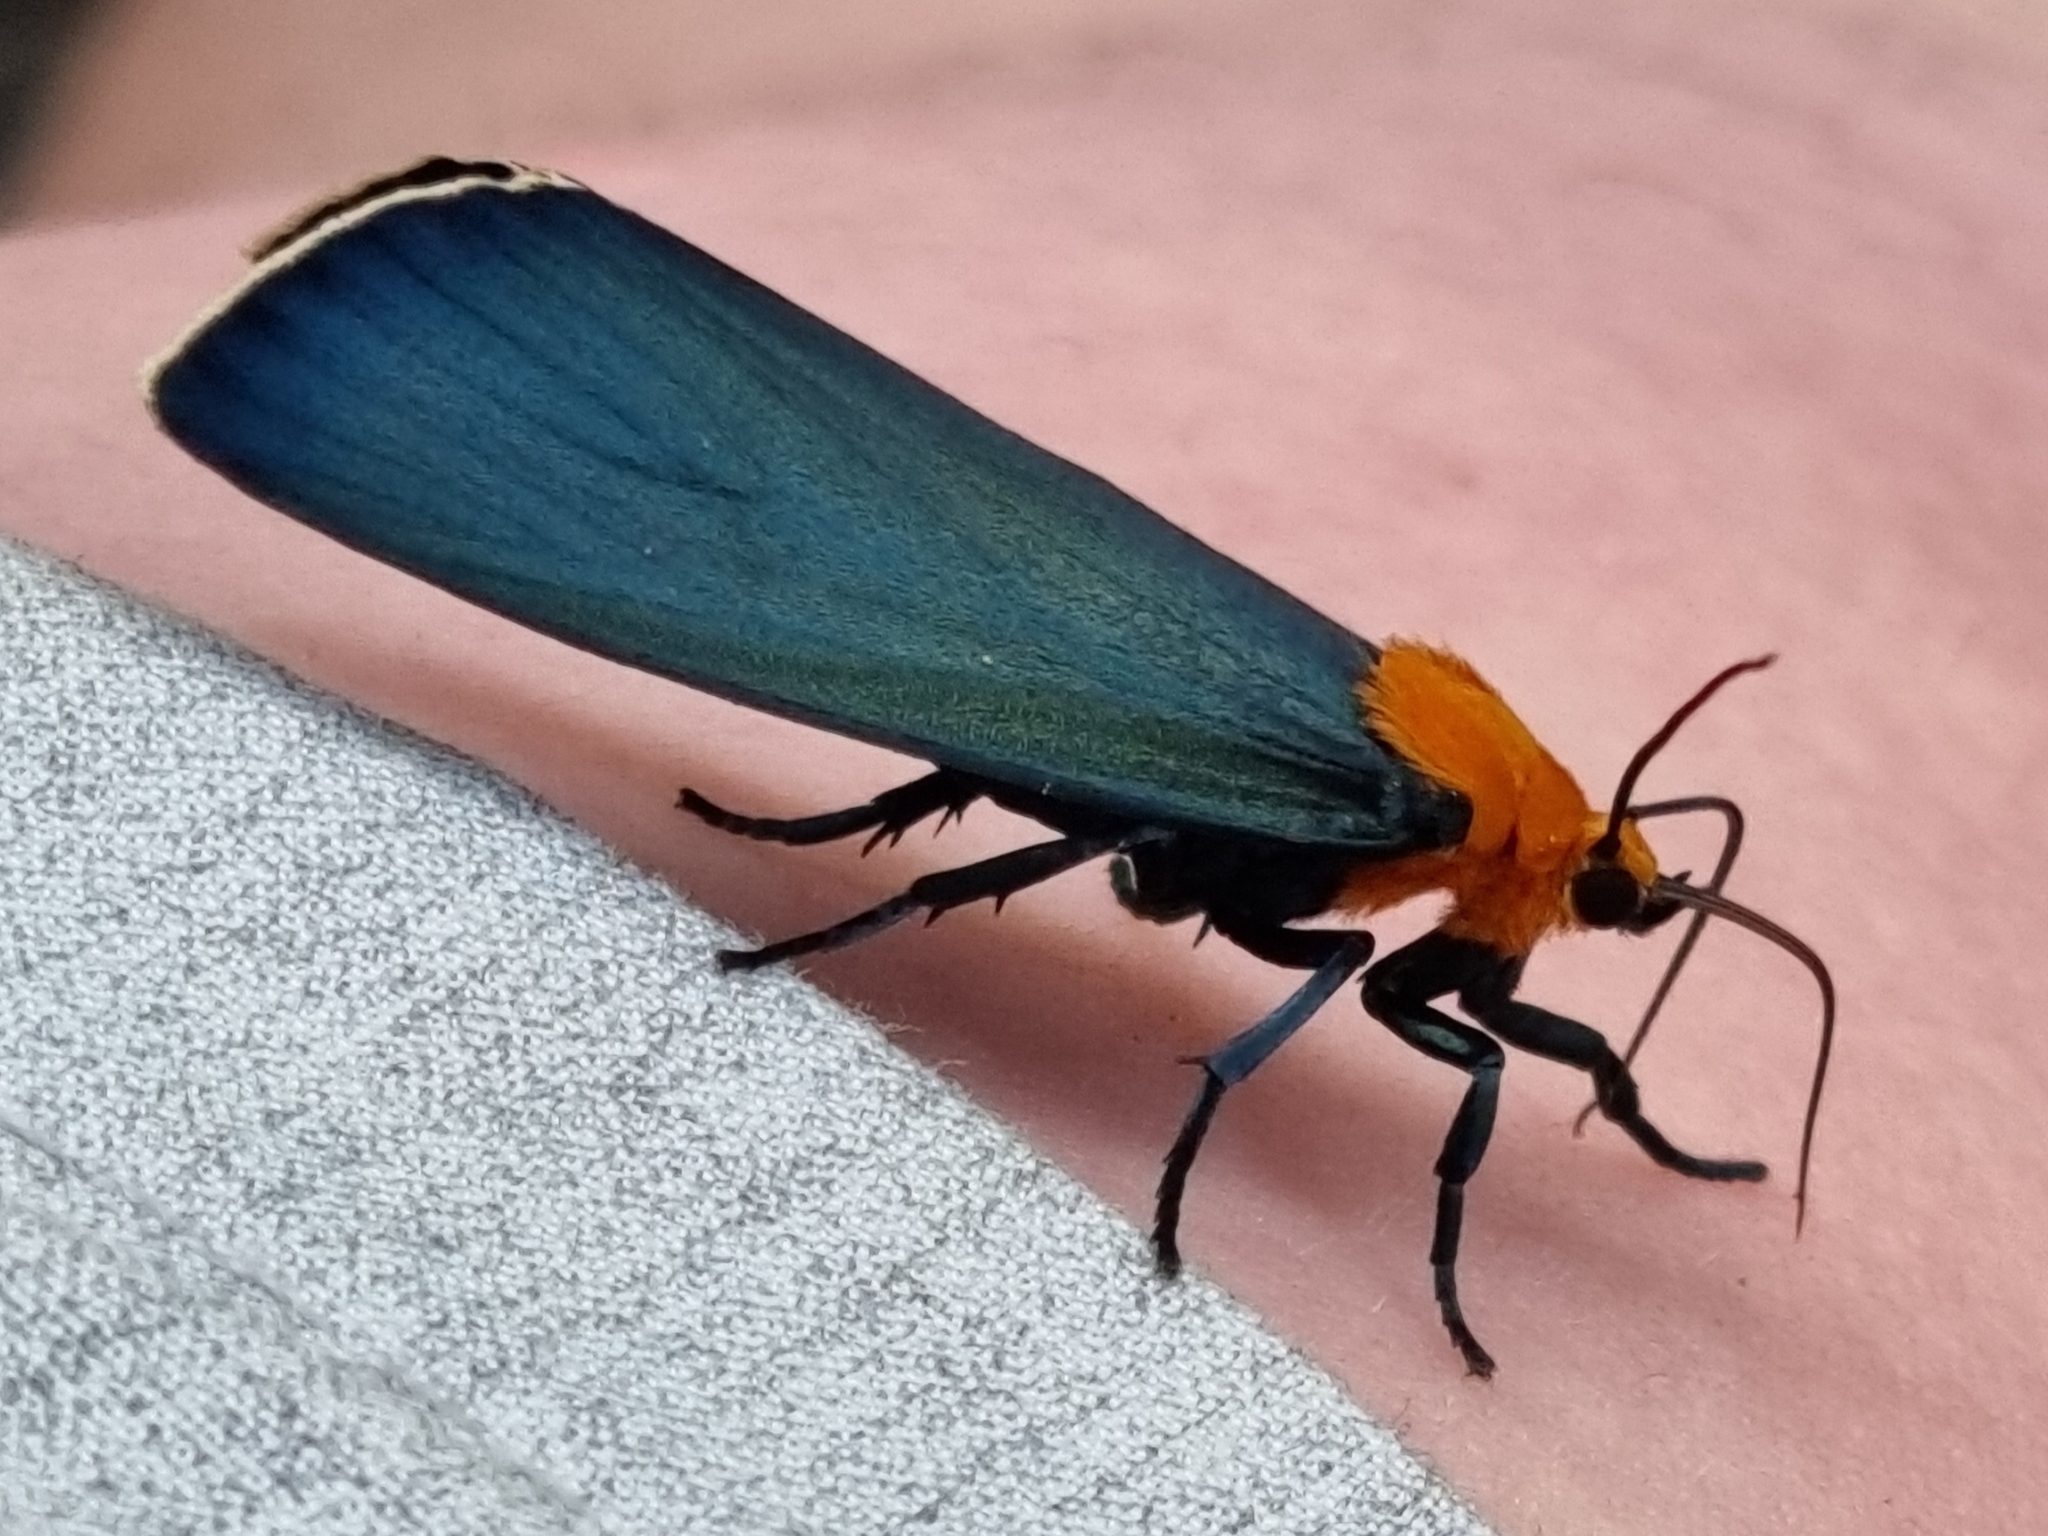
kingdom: Animalia
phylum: Arthropoda
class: Insecta
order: Lepidoptera
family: Erebidae
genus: Apistosia
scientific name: Apistosia judas
